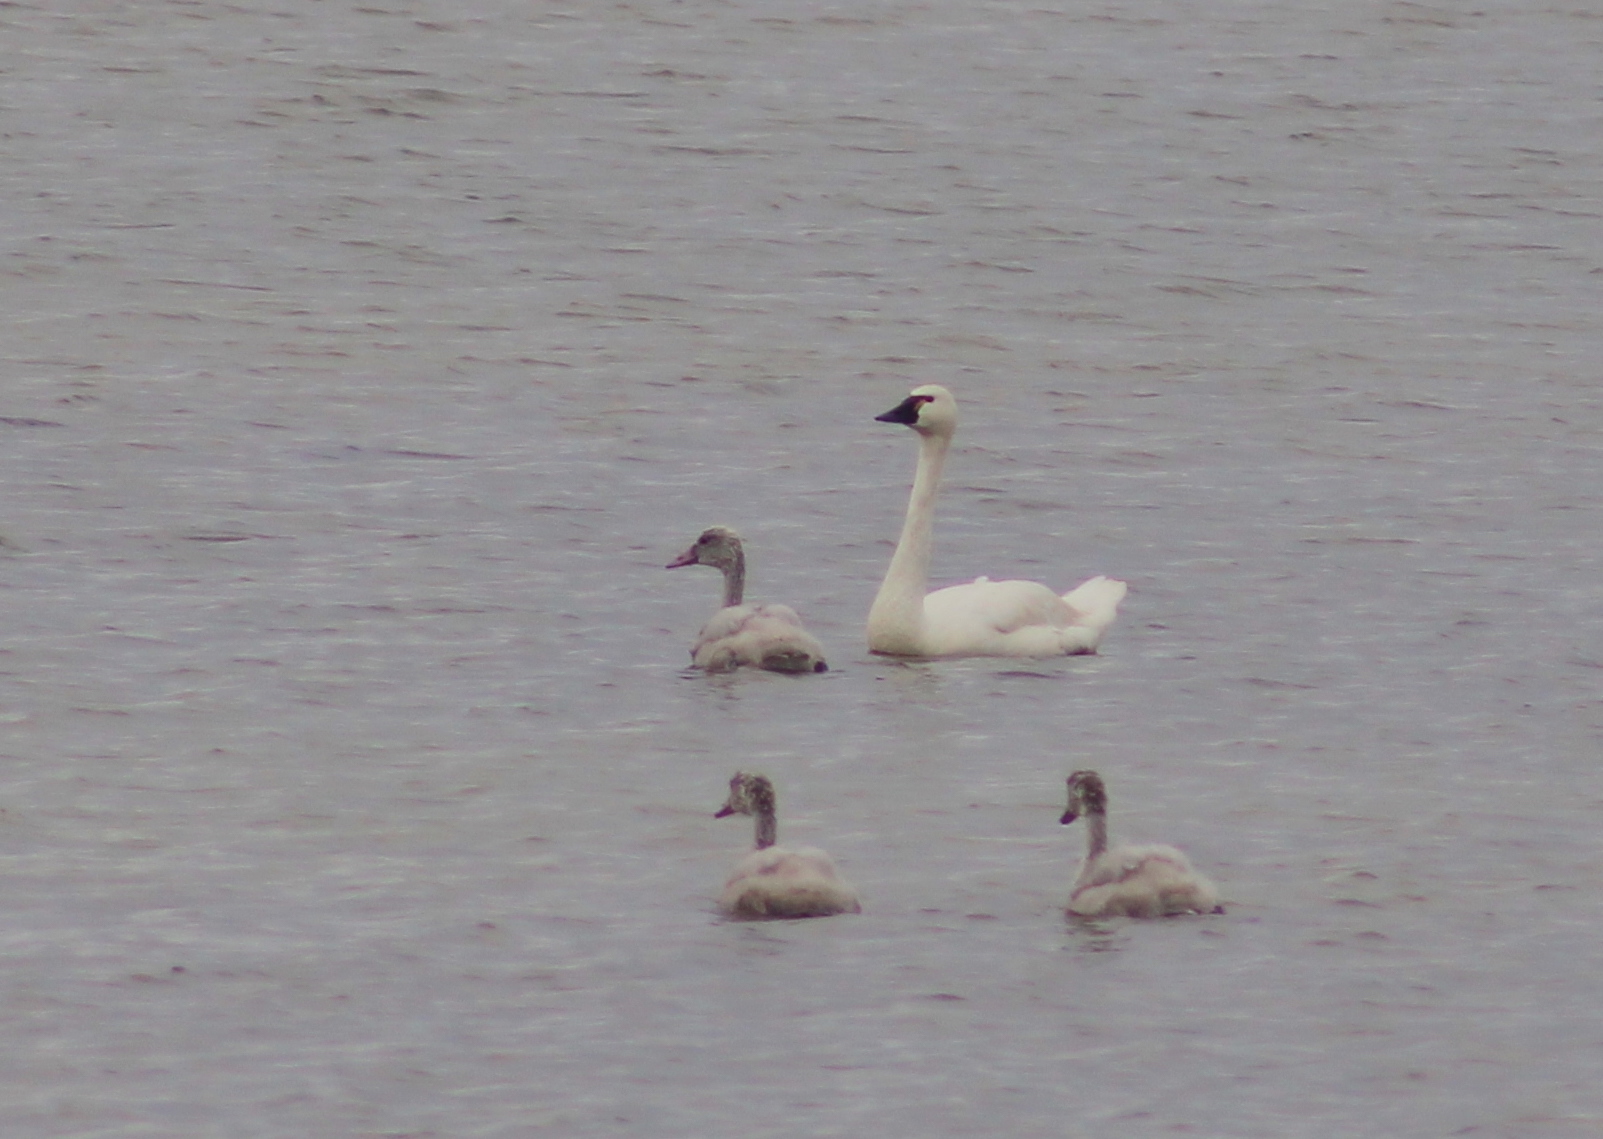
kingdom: Animalia
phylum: Chordata
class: Aves
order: Anseriformes
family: Anatidae
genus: Cygnus
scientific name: Cygnus columbianus
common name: Tundra swan
